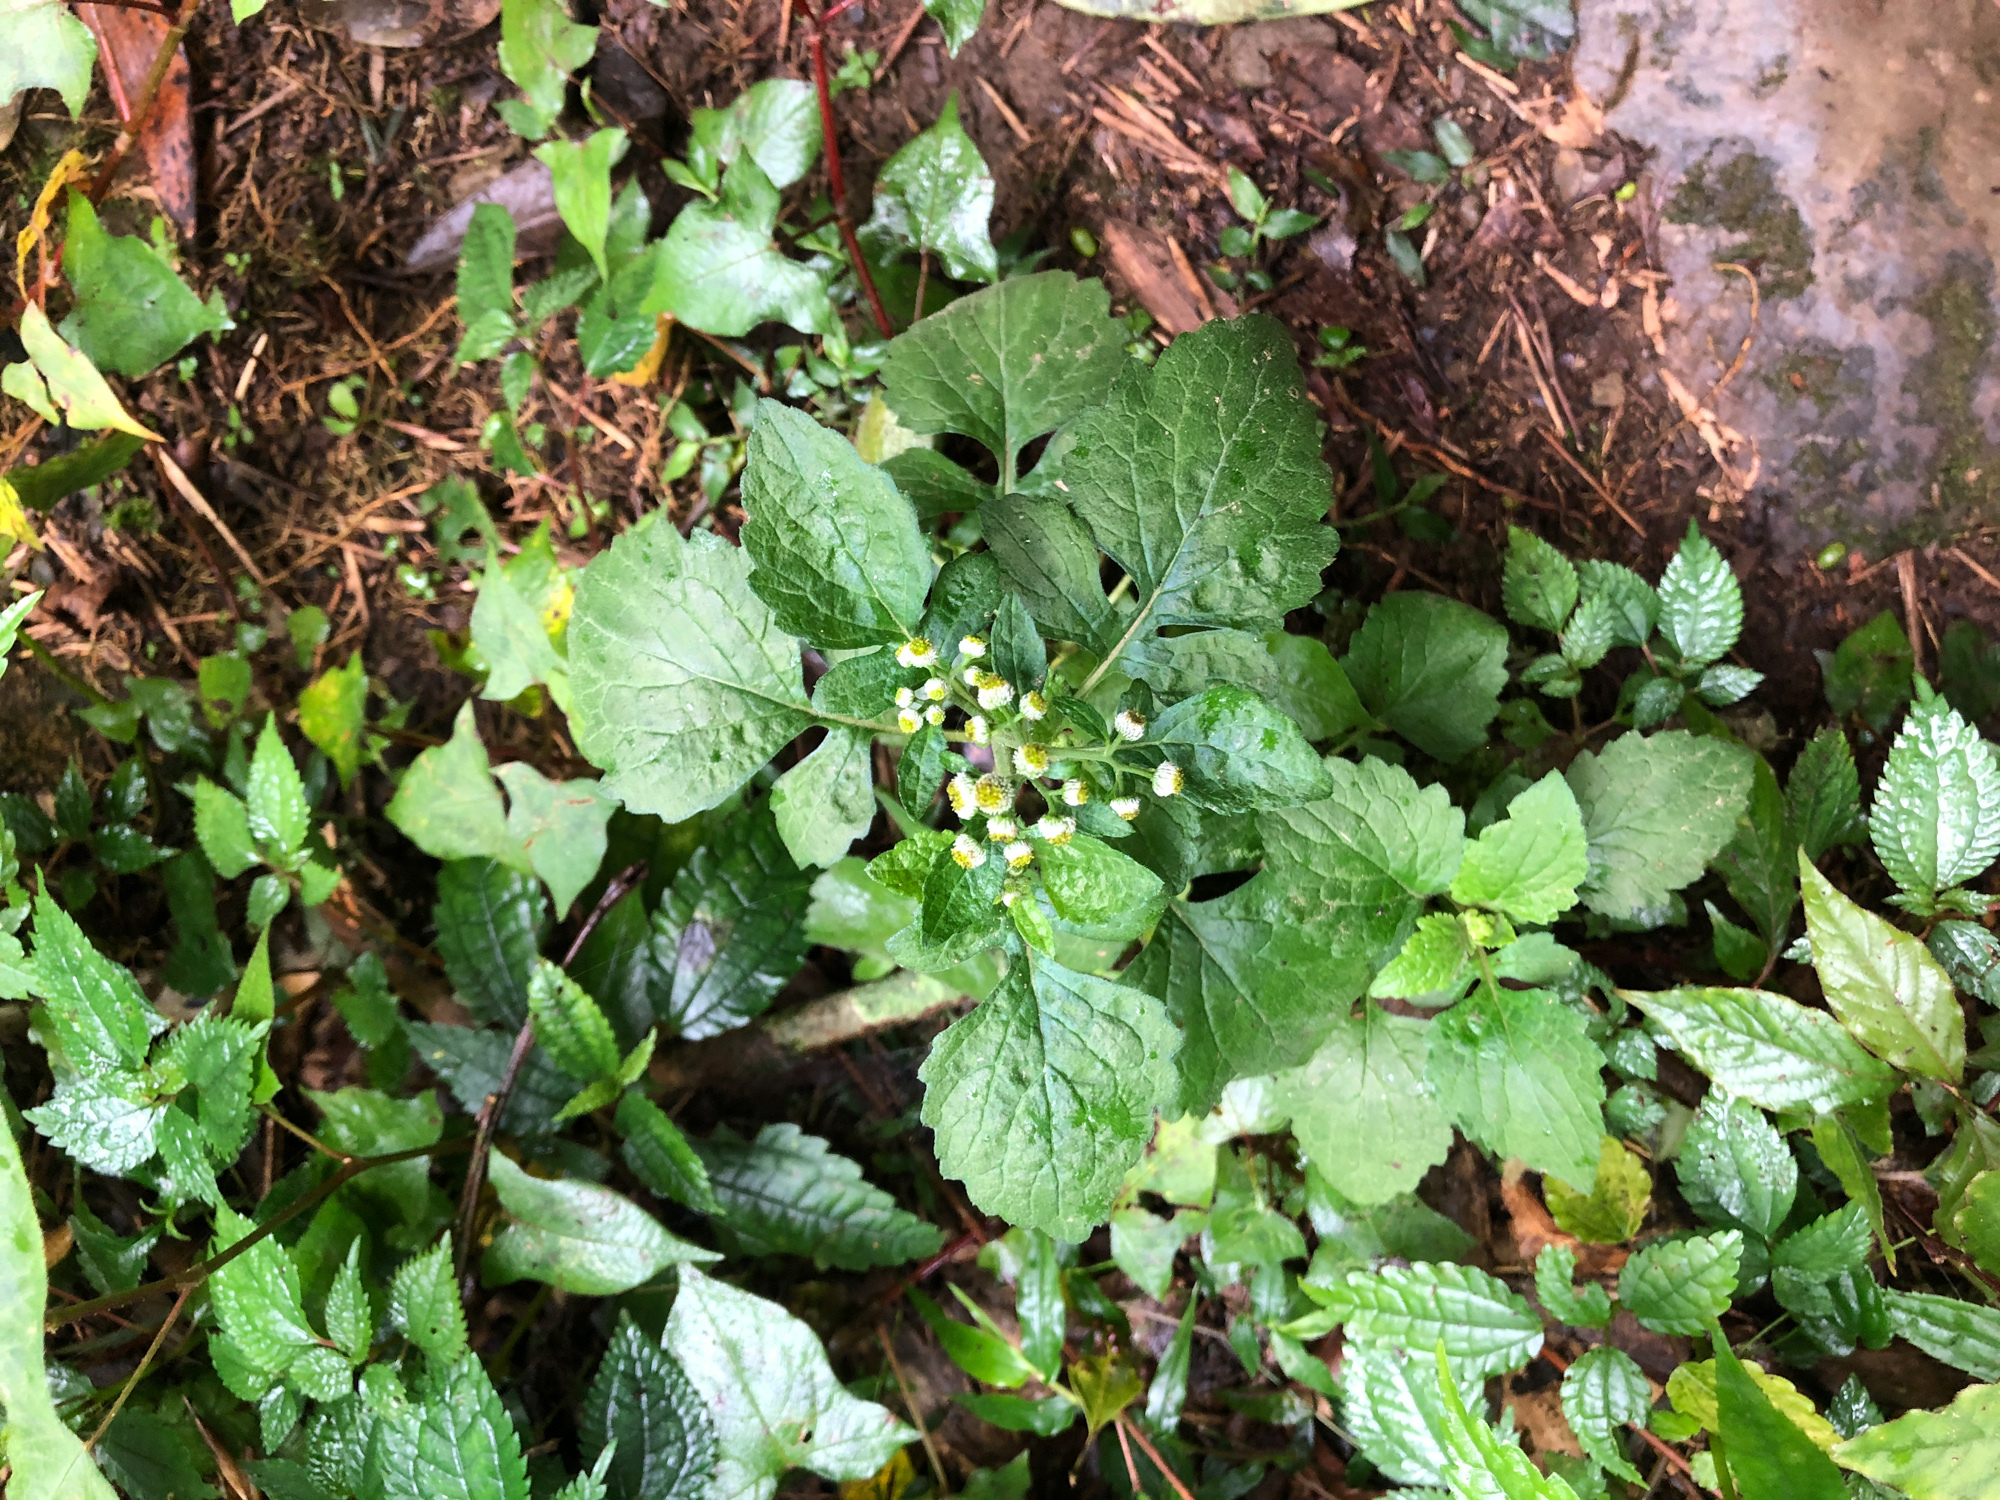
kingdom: Plantae
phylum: Tracheophyta
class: Magnoliopsida
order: Asterales
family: Asteraceae
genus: Dichrocephala
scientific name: Dichrocephala integrifolia
